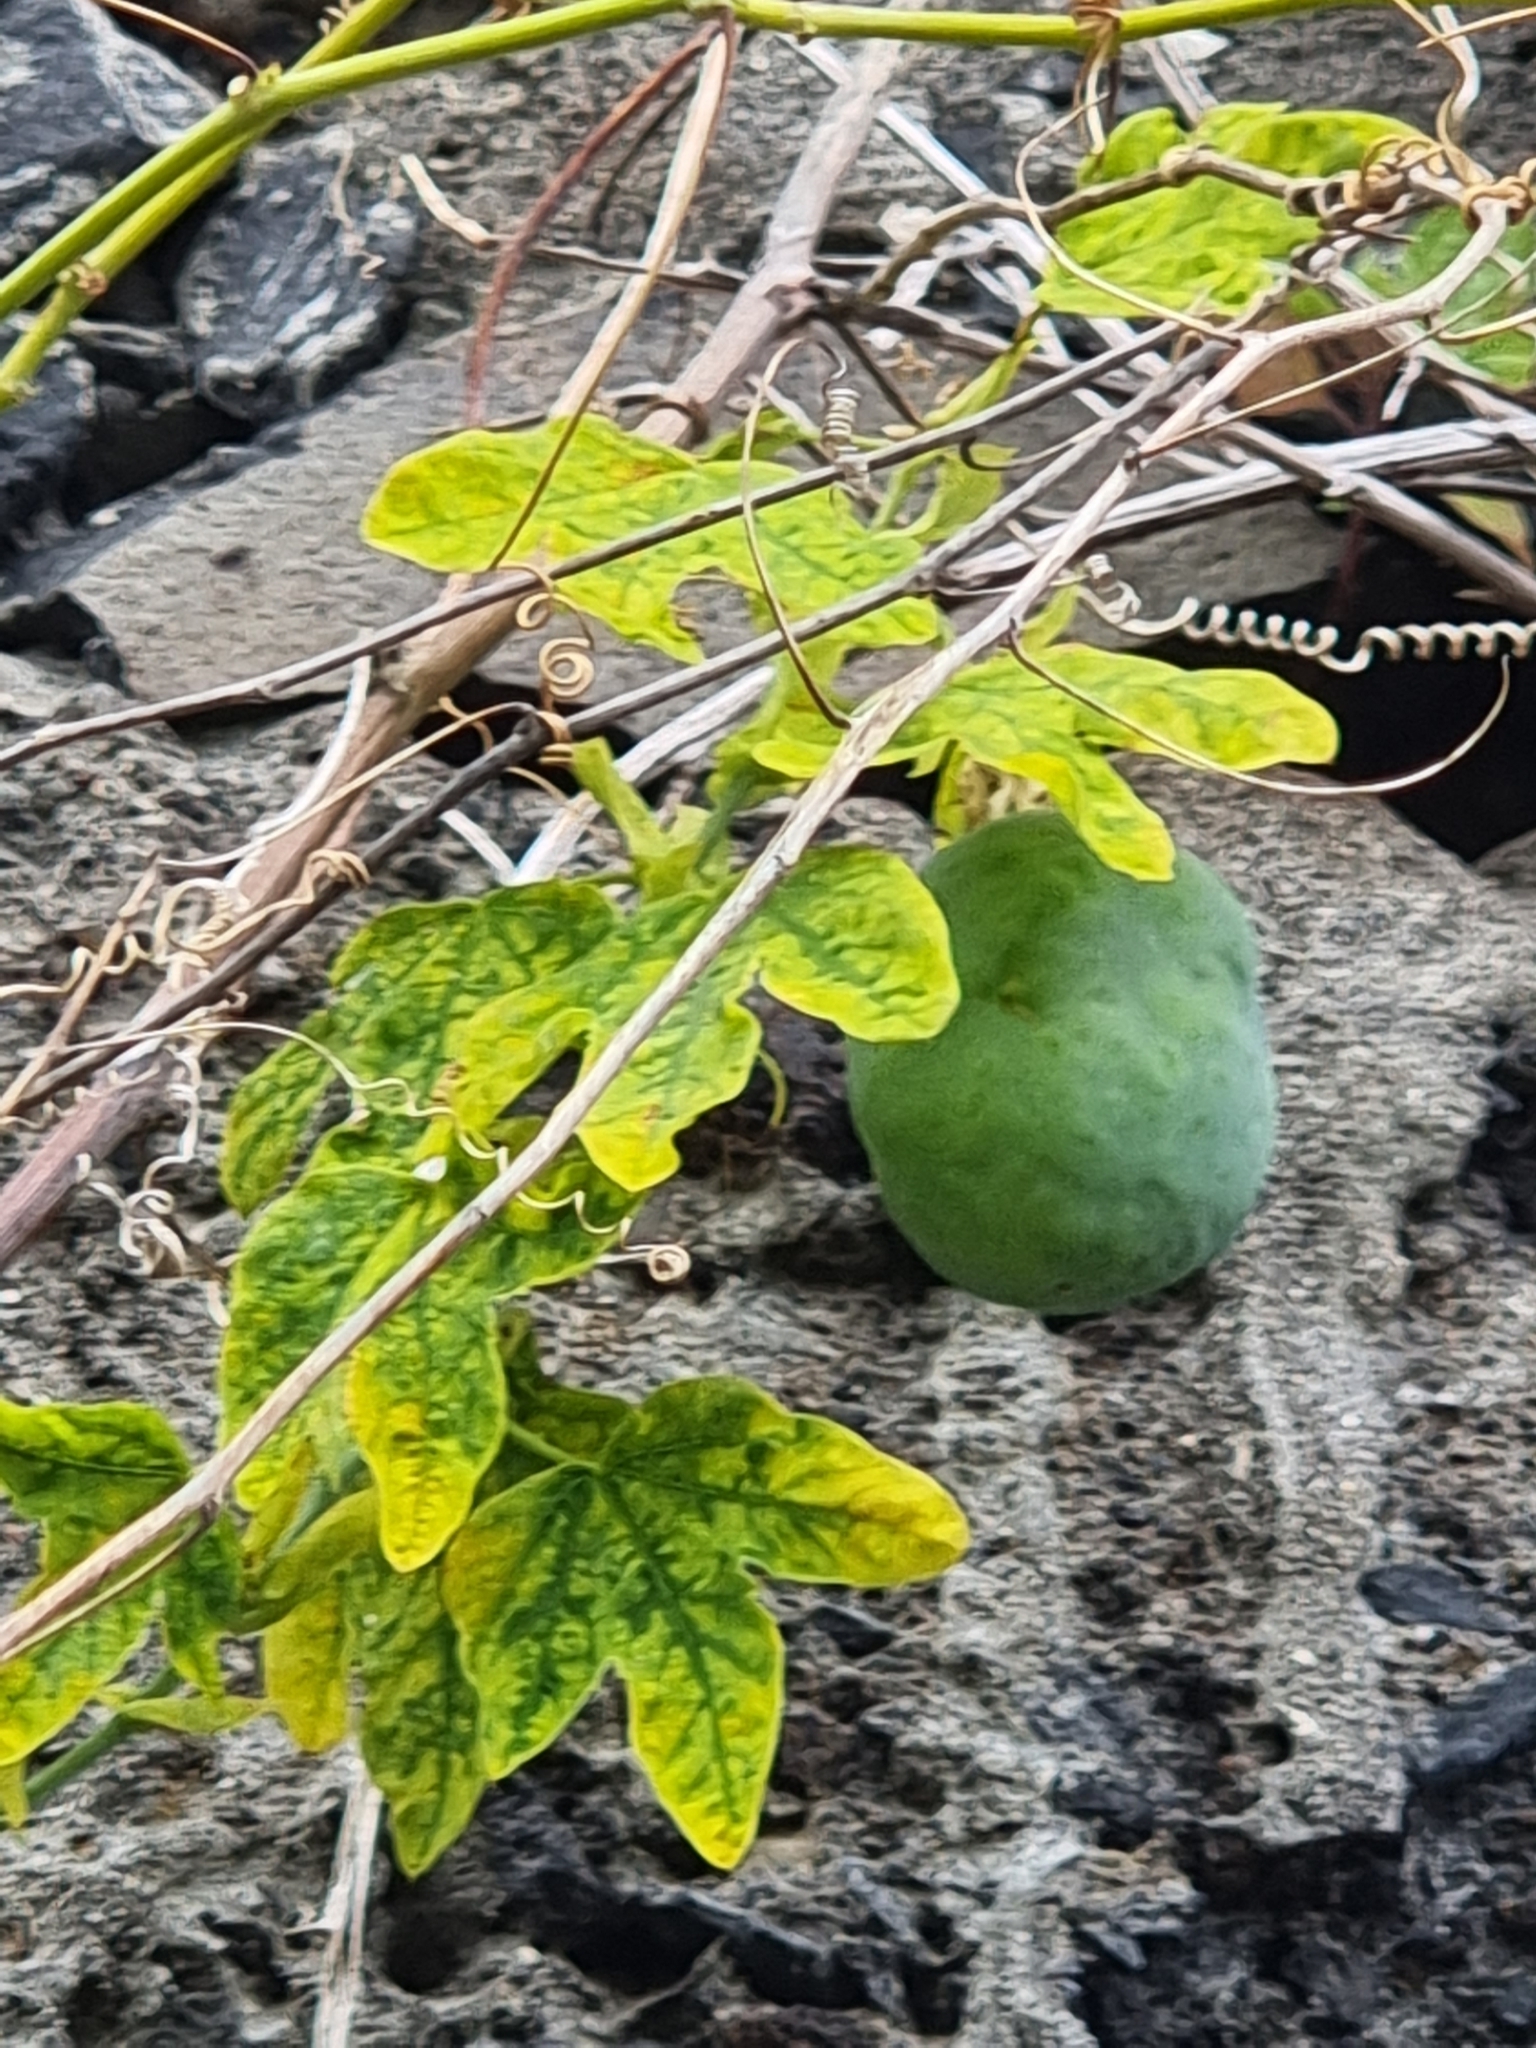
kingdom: Plantae
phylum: Tracheophyta
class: Magnoliopsida
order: Malpighiales
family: Passifloraceae
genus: Passiflora
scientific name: Passiflora subpeltata
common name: White passionflower
